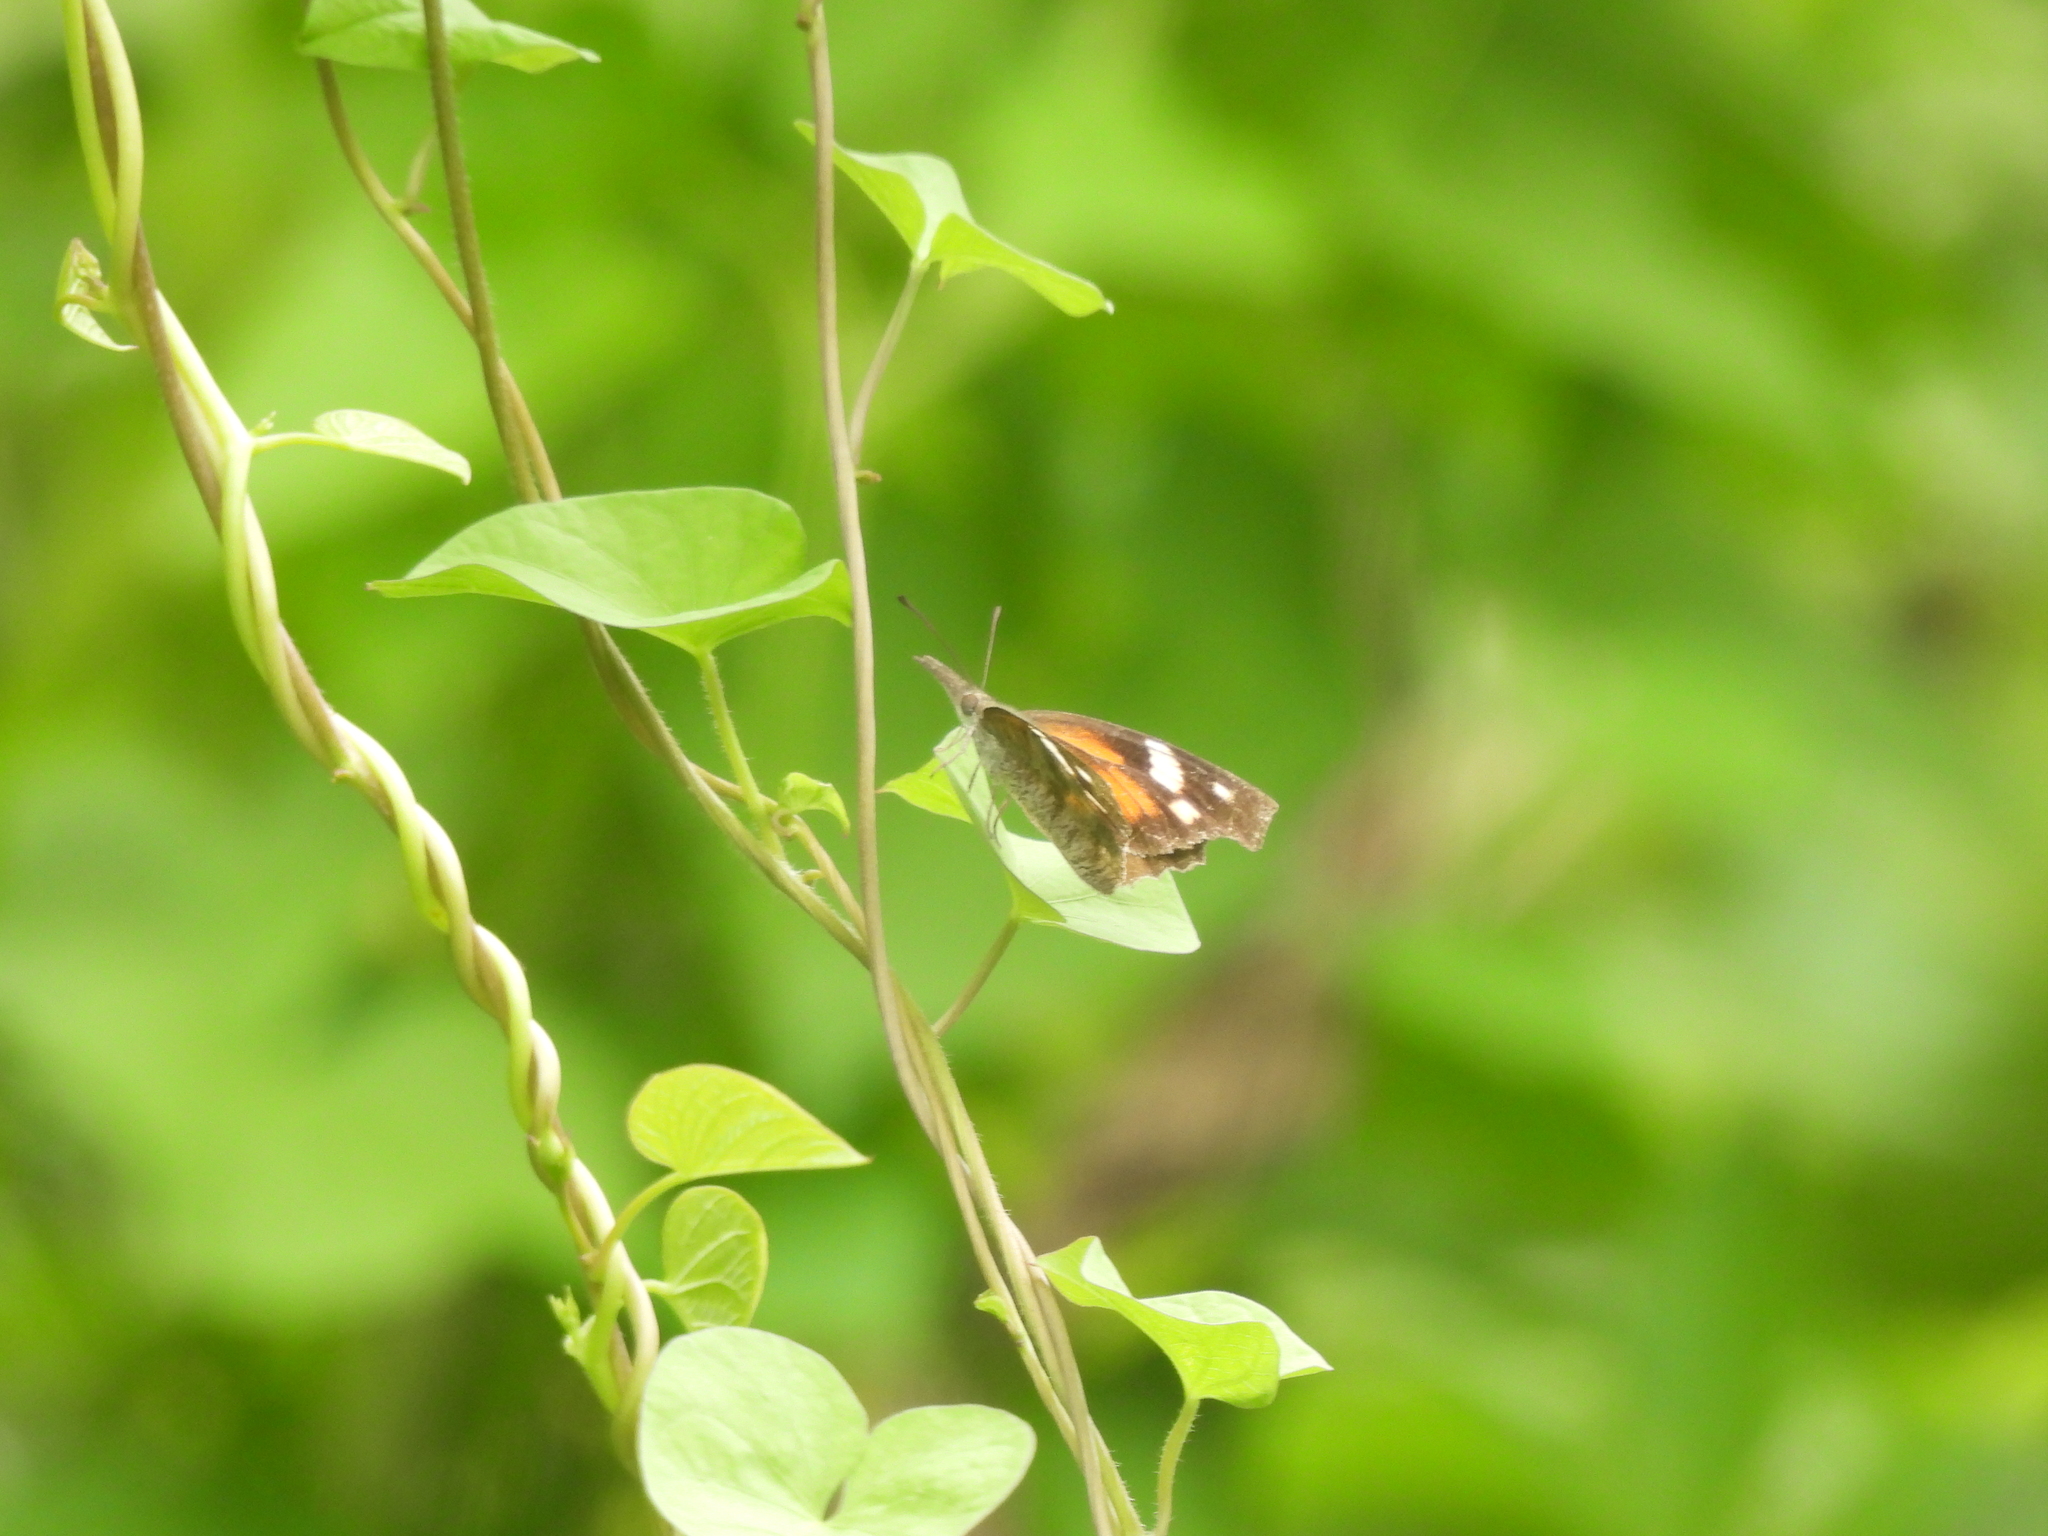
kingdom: Animalia
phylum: Arthropoda
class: Insecta
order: Lepidoptera
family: Nymphalidae
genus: Libytheana
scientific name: Libytheana carinenta
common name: American snout
